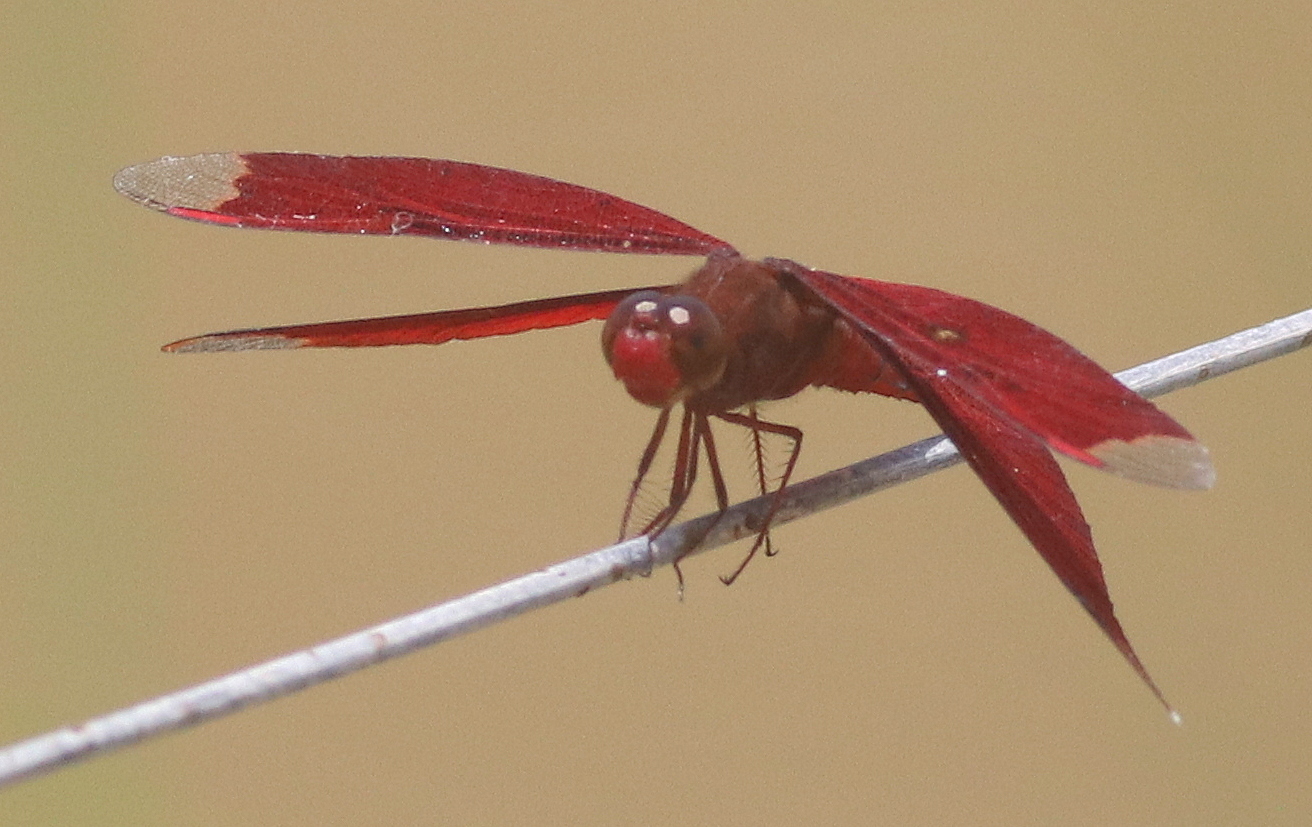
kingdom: Animalia
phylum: Arthropoda
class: Insecta
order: Odonata
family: Libellulidae
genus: Neurothemis
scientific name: Neurothemis fulvia
